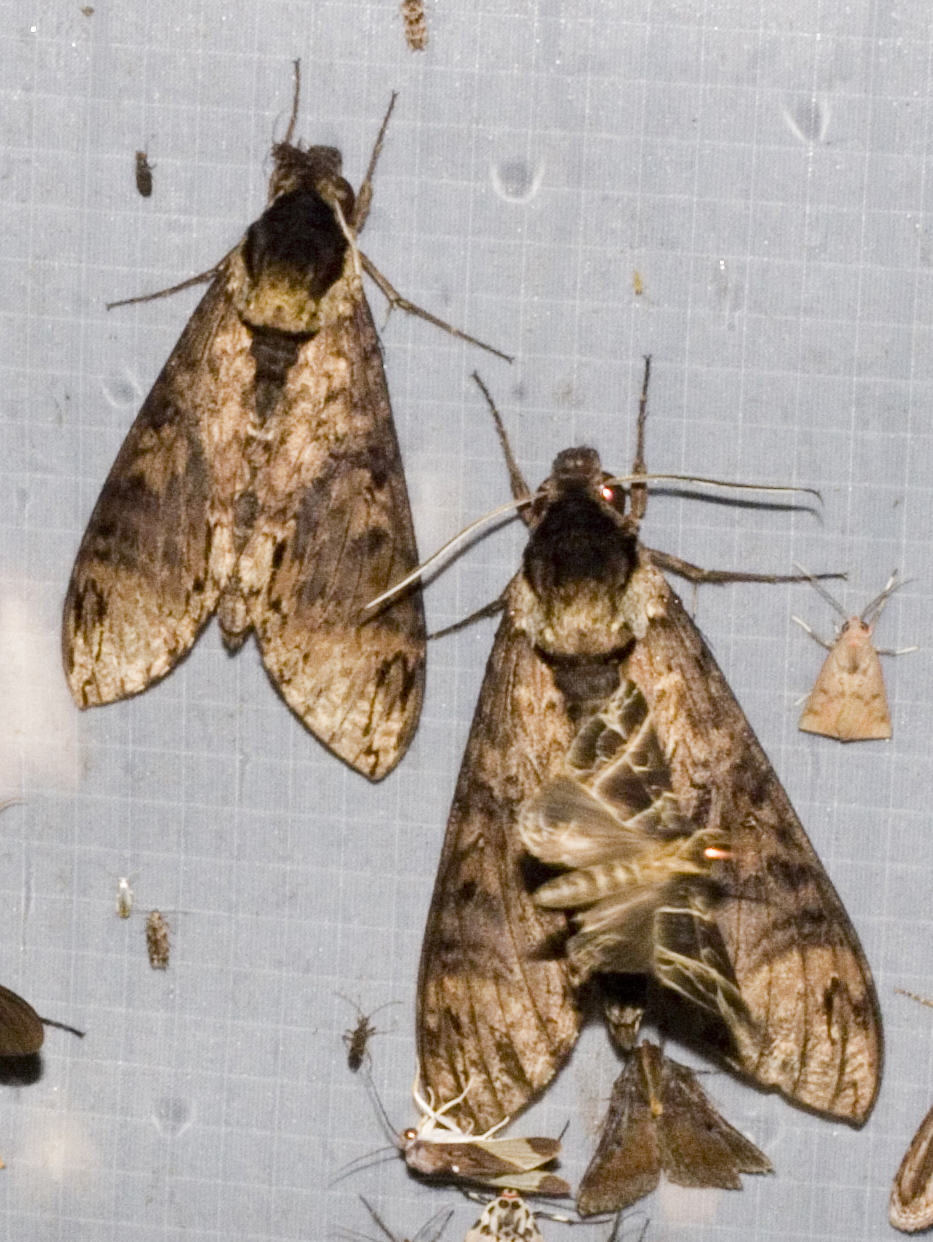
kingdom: Animalia
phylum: Arthropoda
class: Insecta
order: Lepidoptera
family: Sphingidae
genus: Manduca
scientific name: Manduca lucetius
